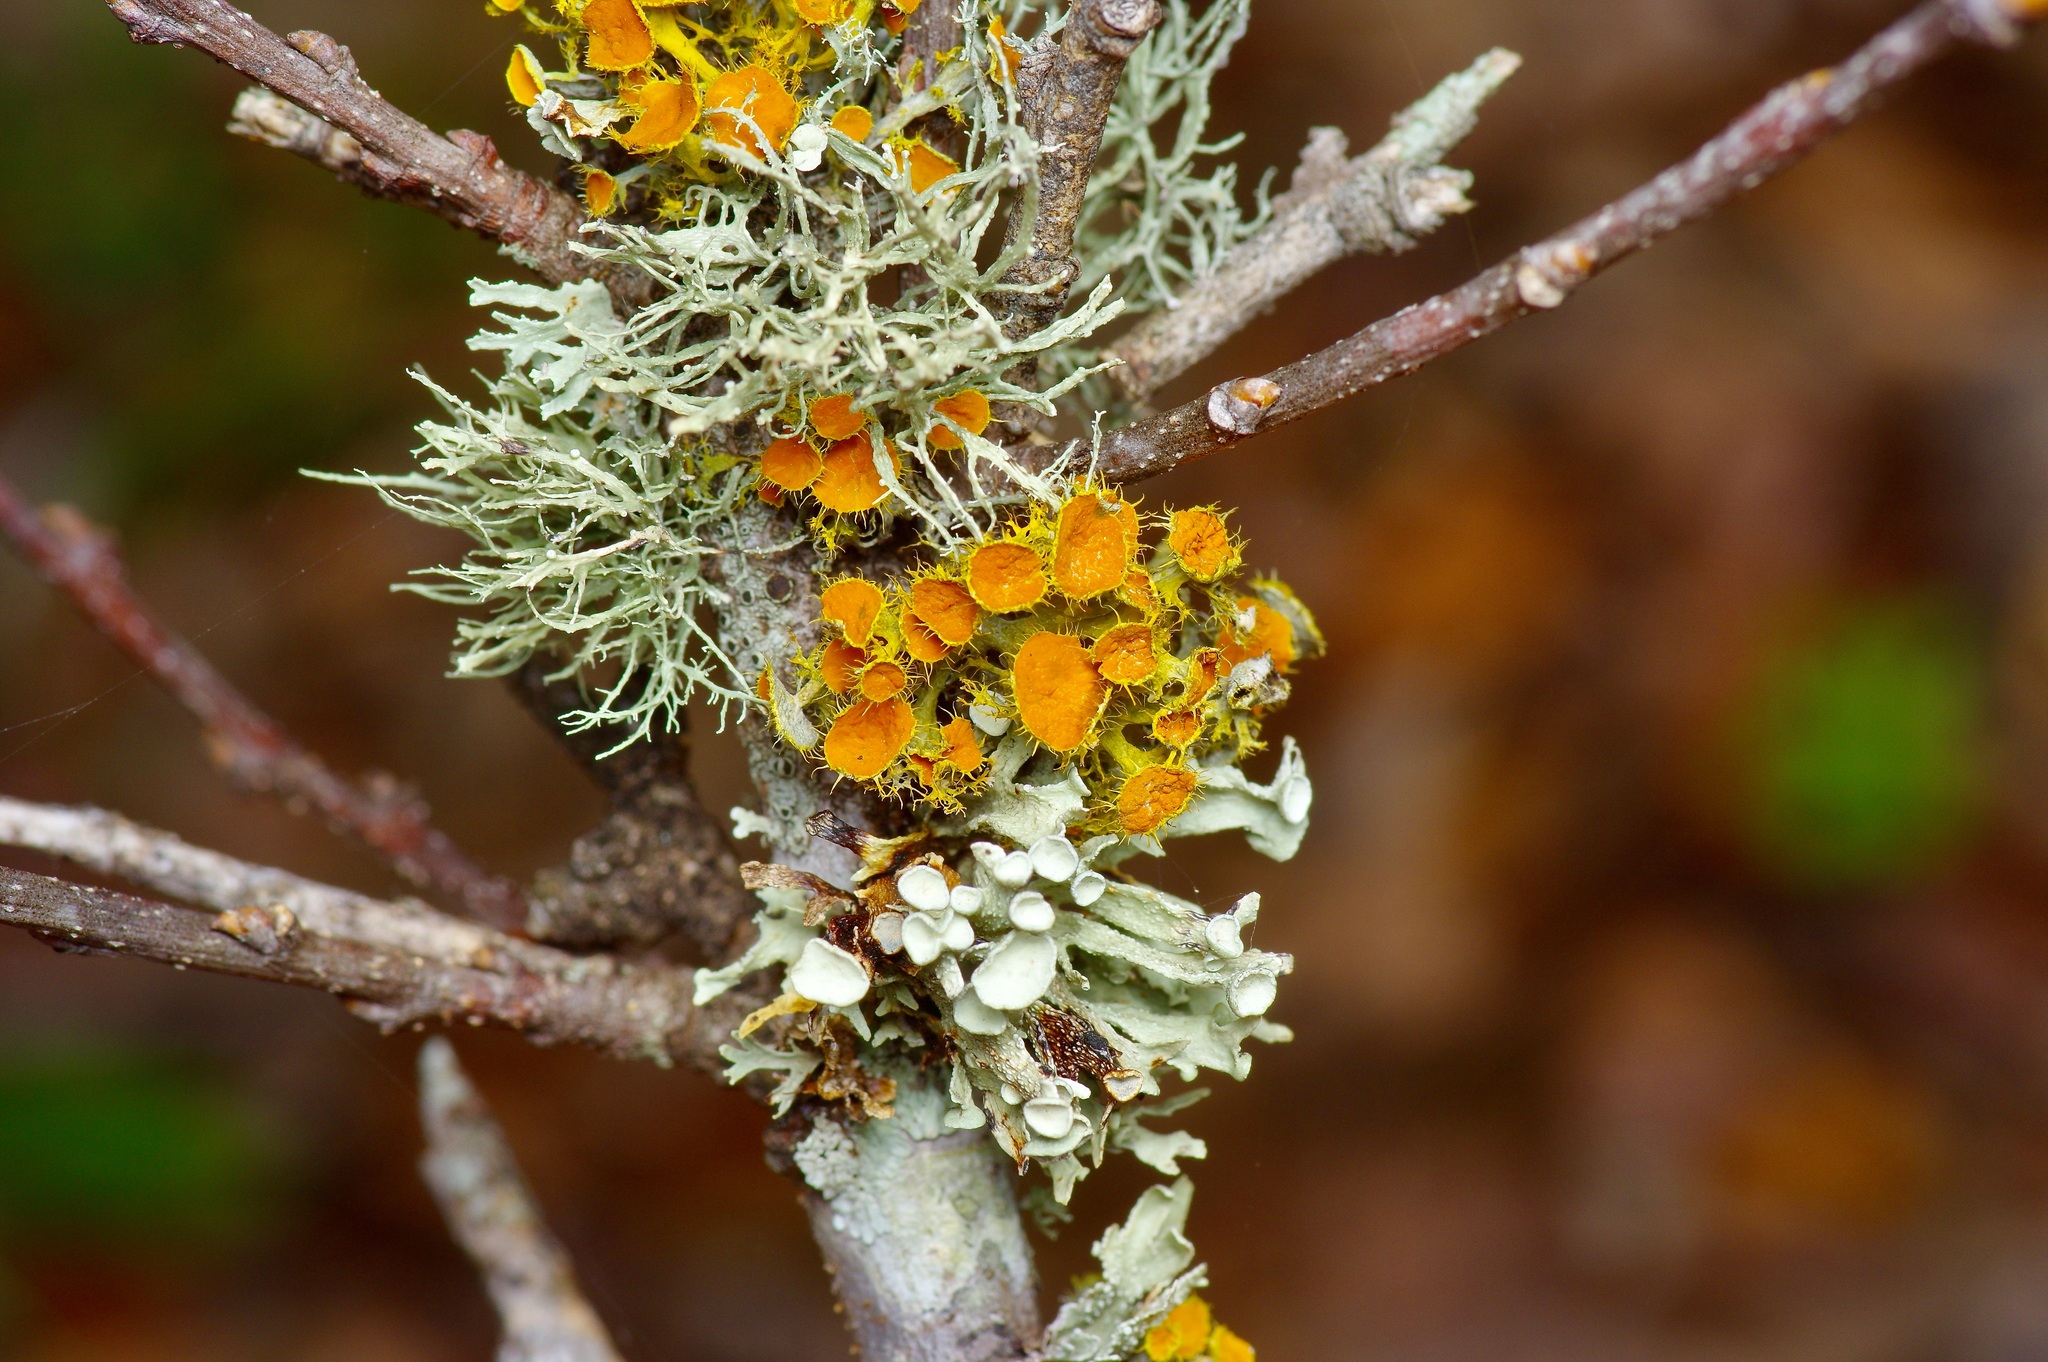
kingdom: Fungi
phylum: Ascomycota
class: Lecanoromycetes
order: Teloschistales
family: Teloschistaceae
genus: Niorma
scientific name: Niorma chrysophthalma
